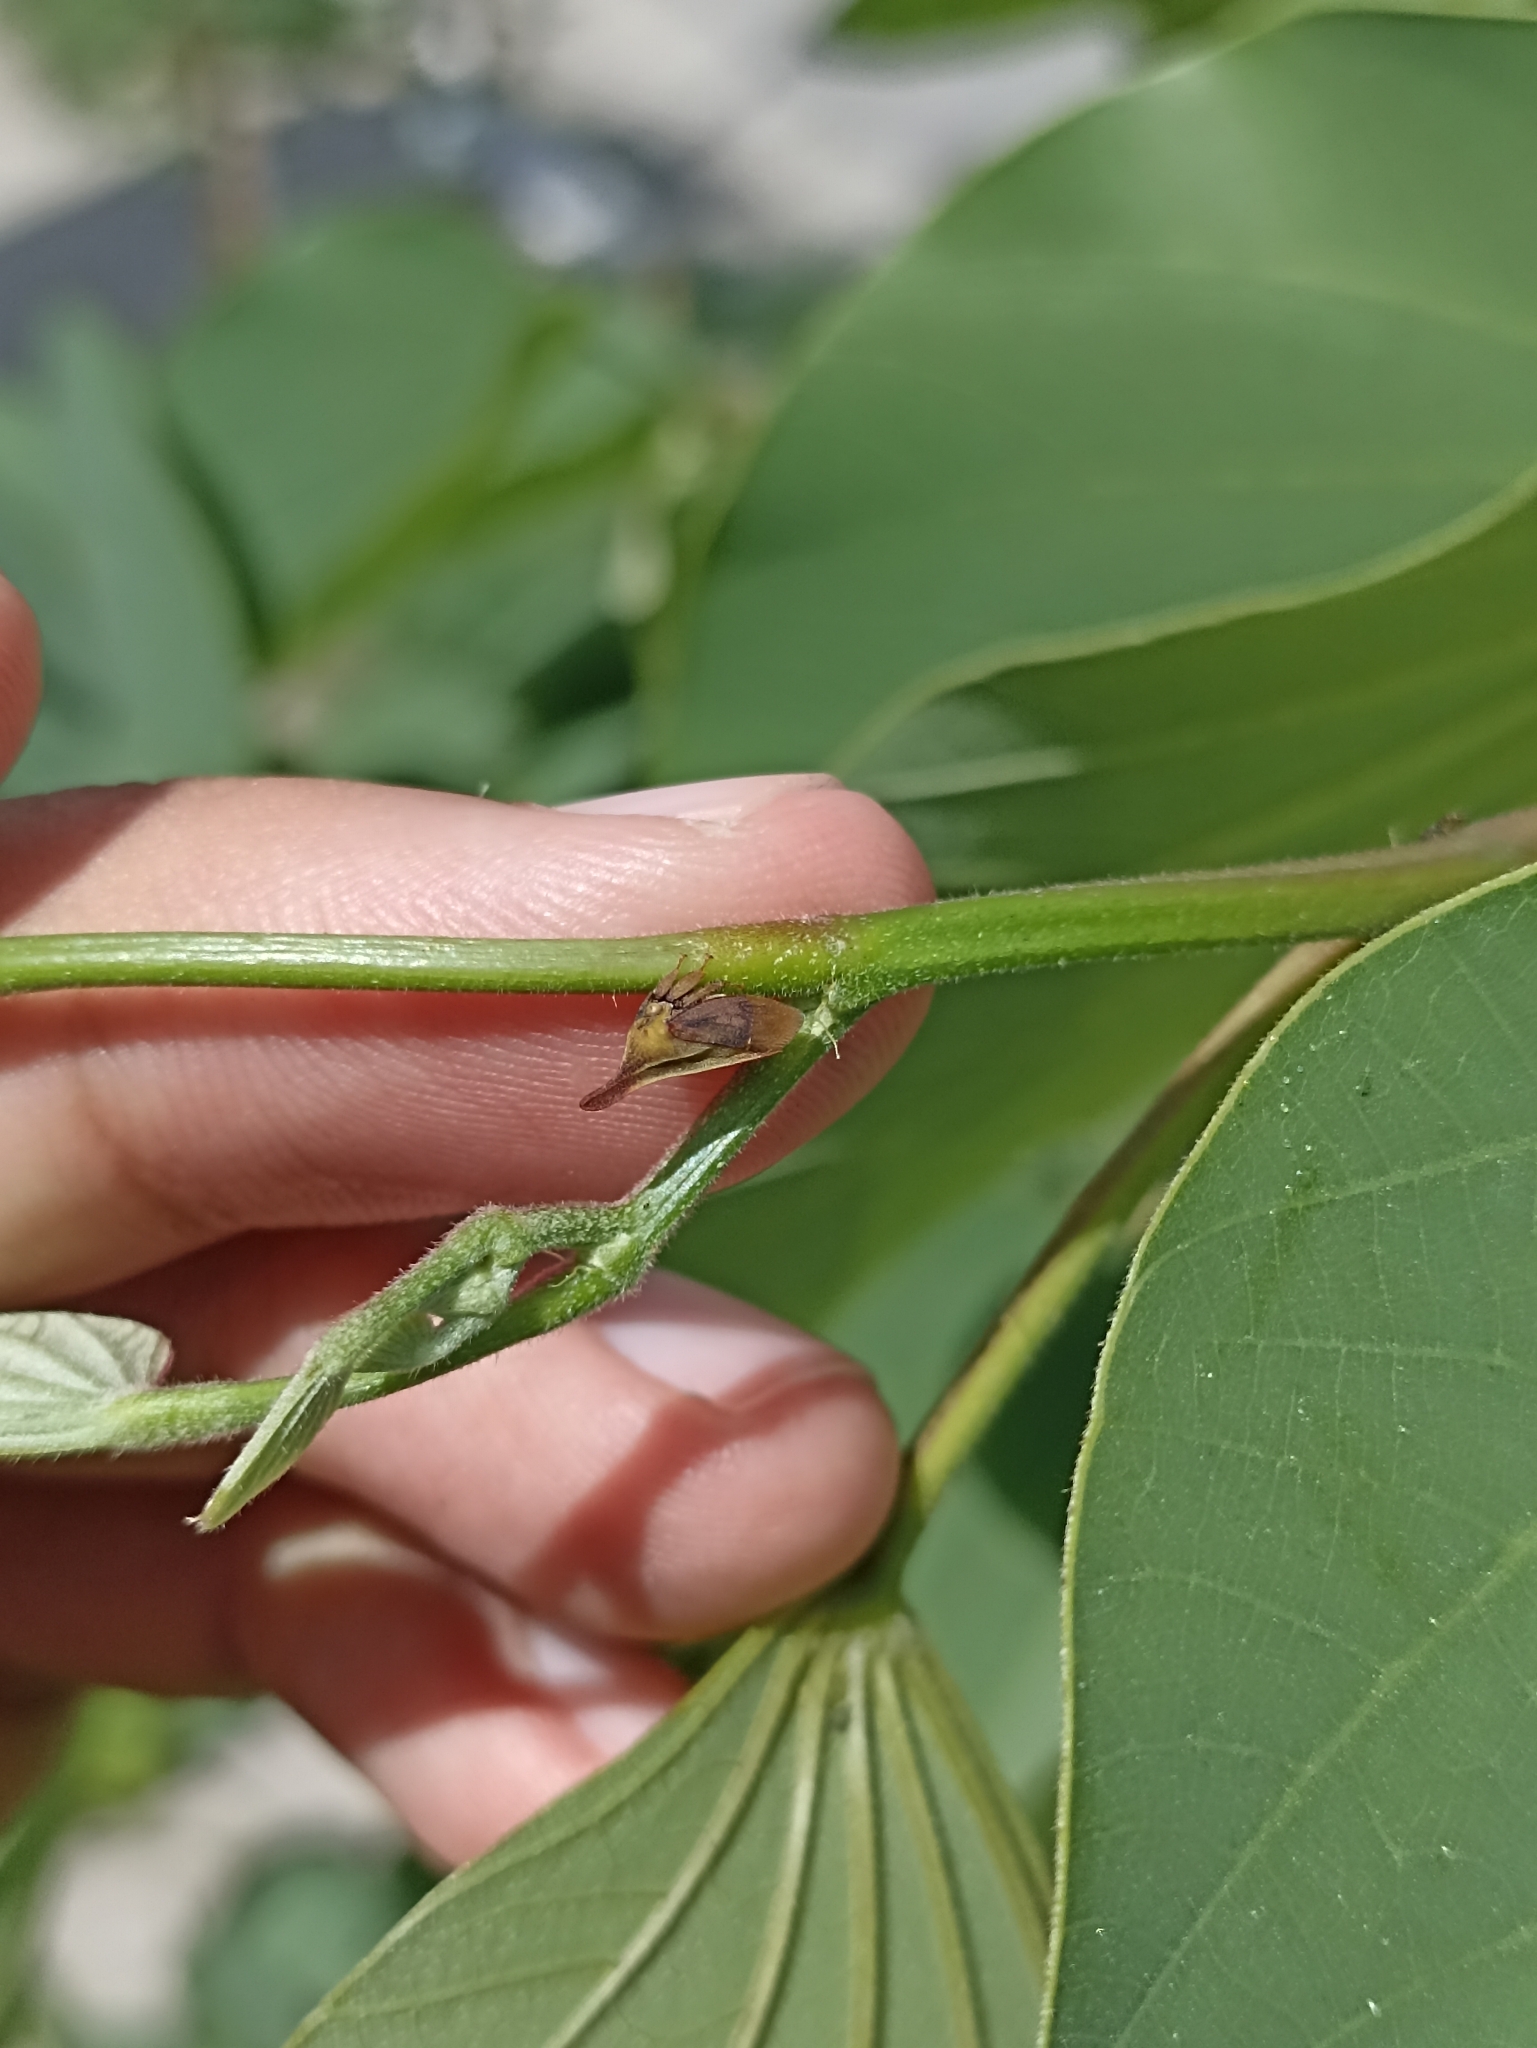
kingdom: Animalia
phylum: Arthropoda
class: Insecta
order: Hemiptera
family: Membracidae
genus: Enchenopa
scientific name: Enchenopa gracilis
